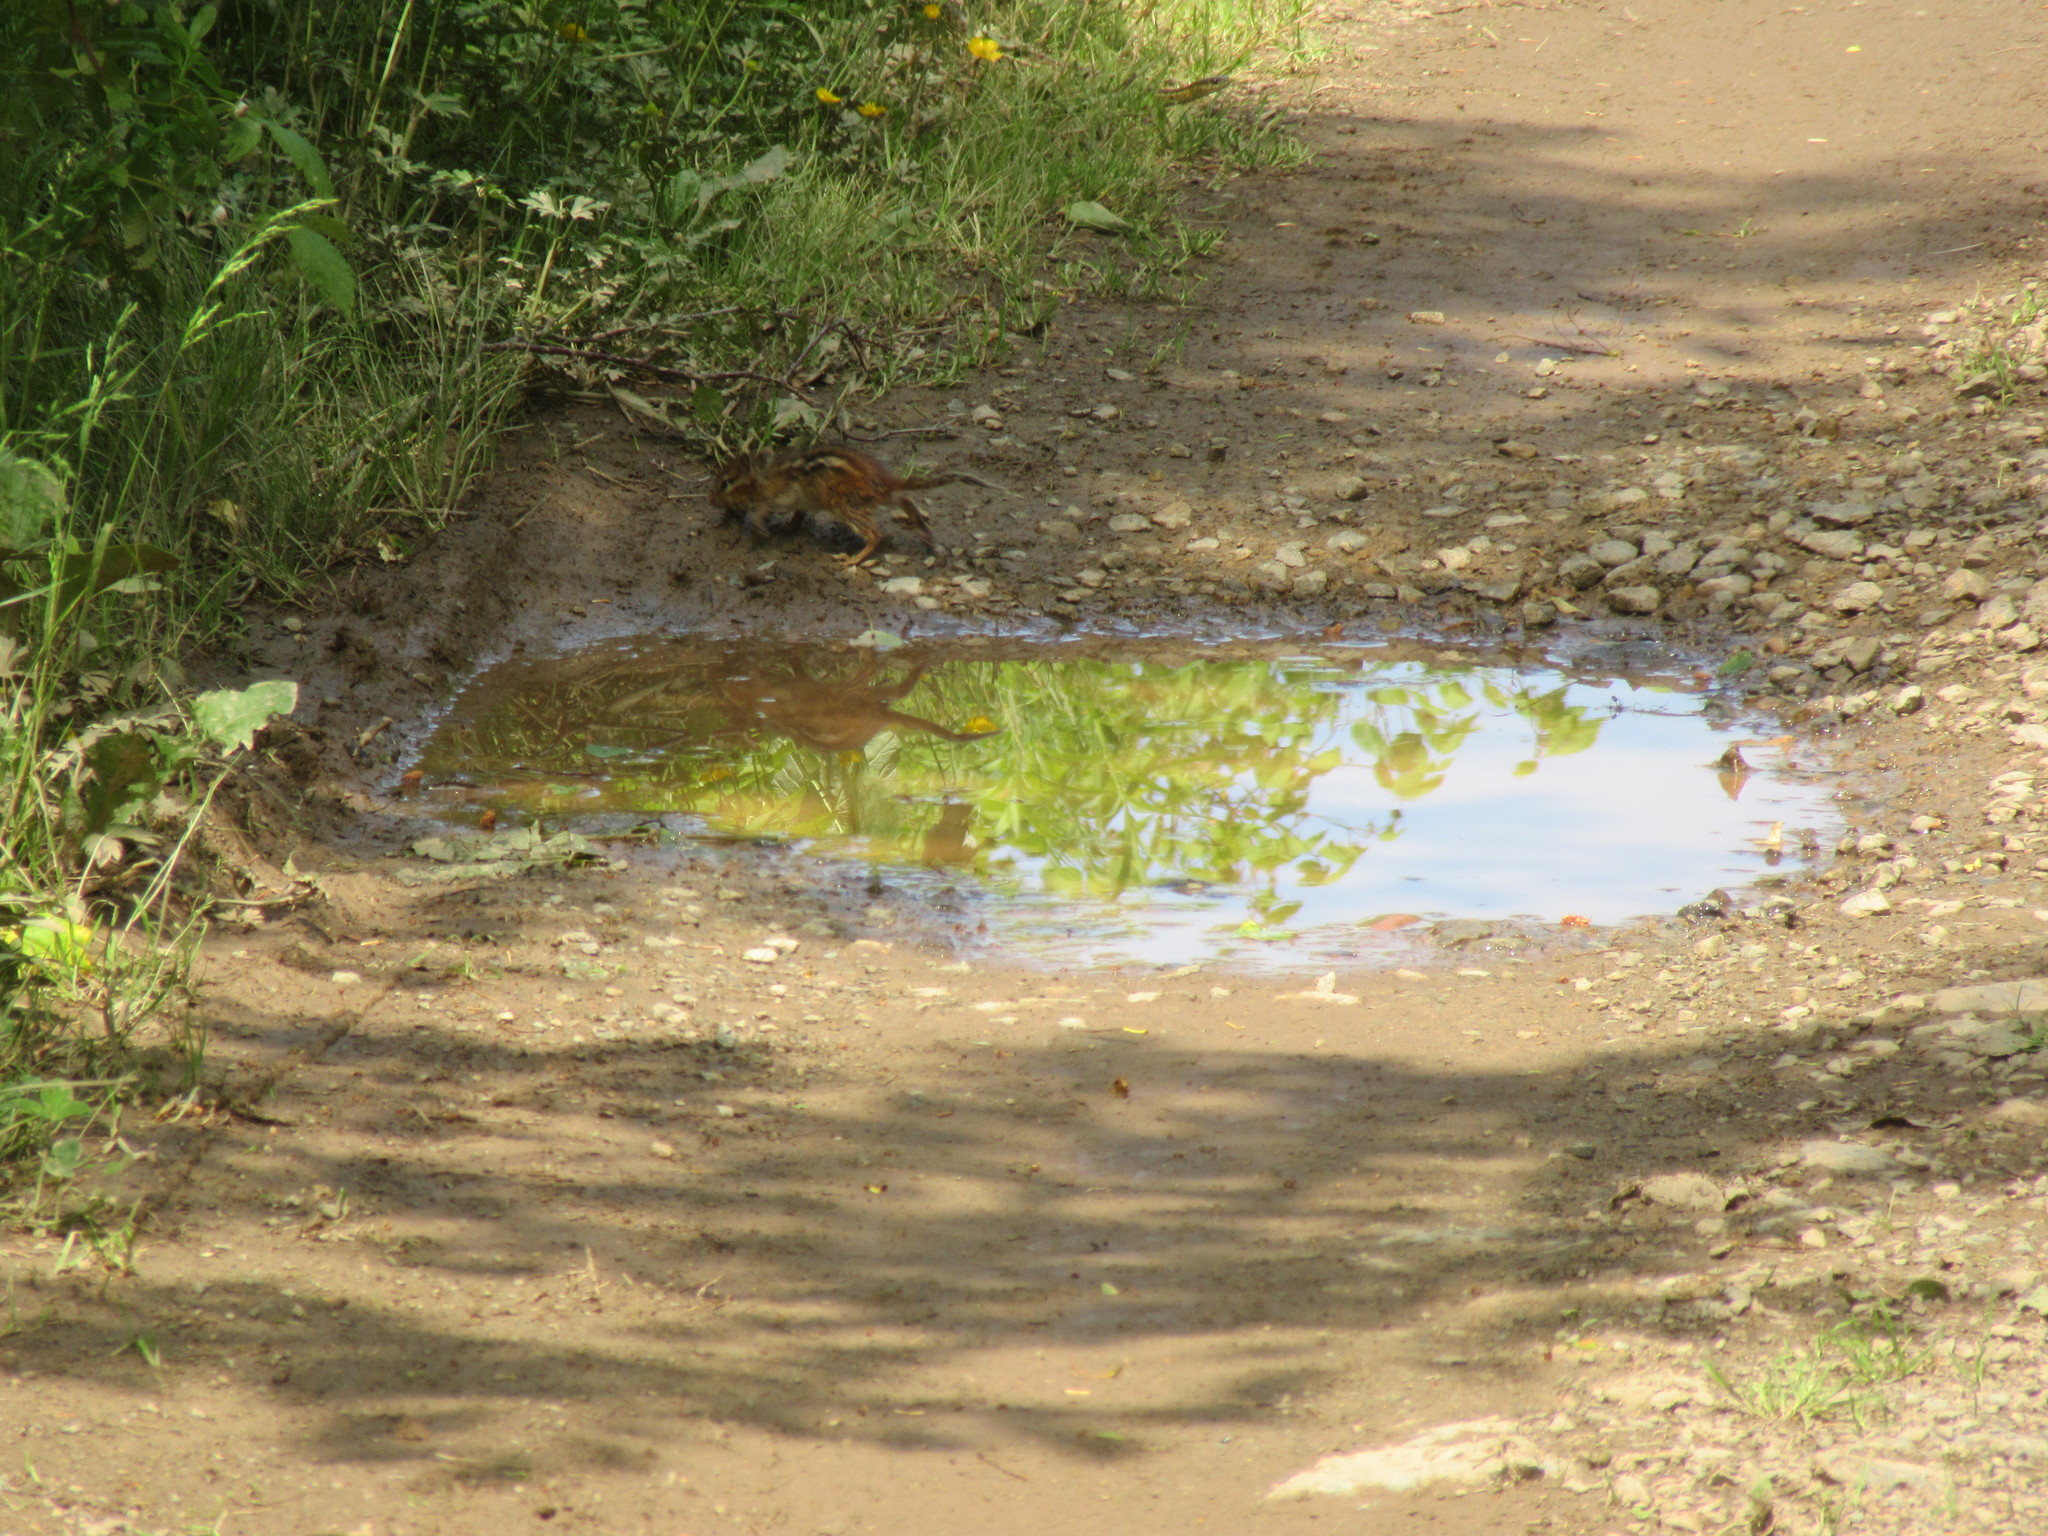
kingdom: Animalia
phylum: Chordata
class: Mammalia
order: Rodentia
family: Sciuridae
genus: Tamias
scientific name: Tamias striatus
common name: Eastern chipmunk
